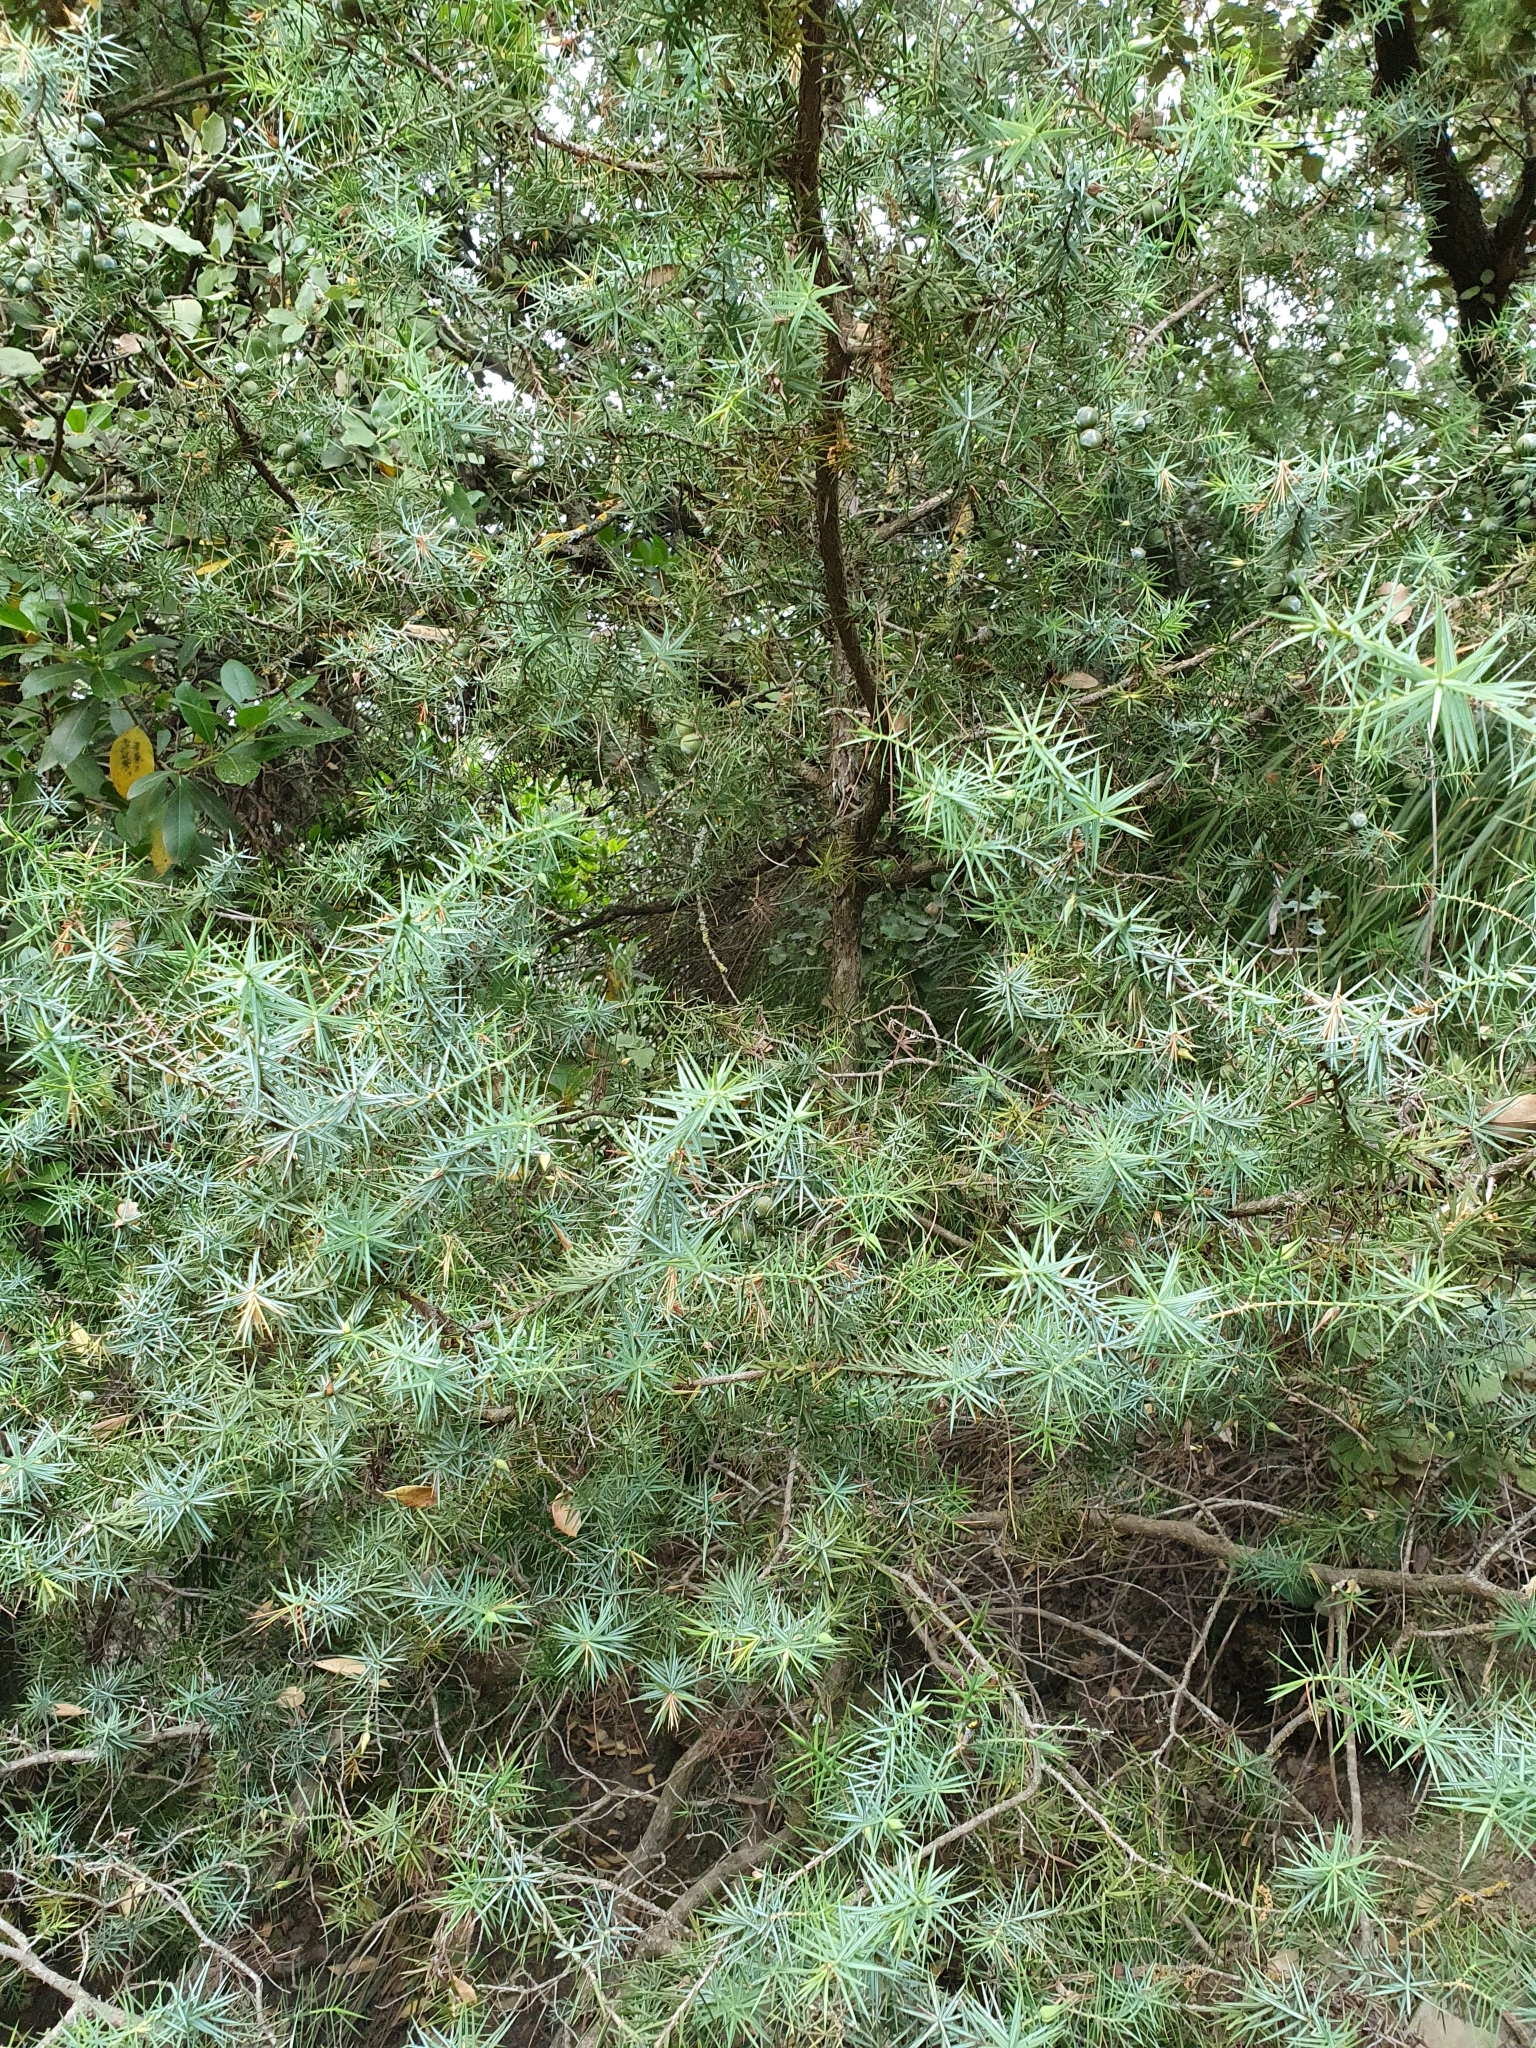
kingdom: Plantae
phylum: Tracheophyta
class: Pinopsida
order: Pinales
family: Cupressaceae
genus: Juniperus
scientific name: Juniperus oxycedrus
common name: Prickly juniper
